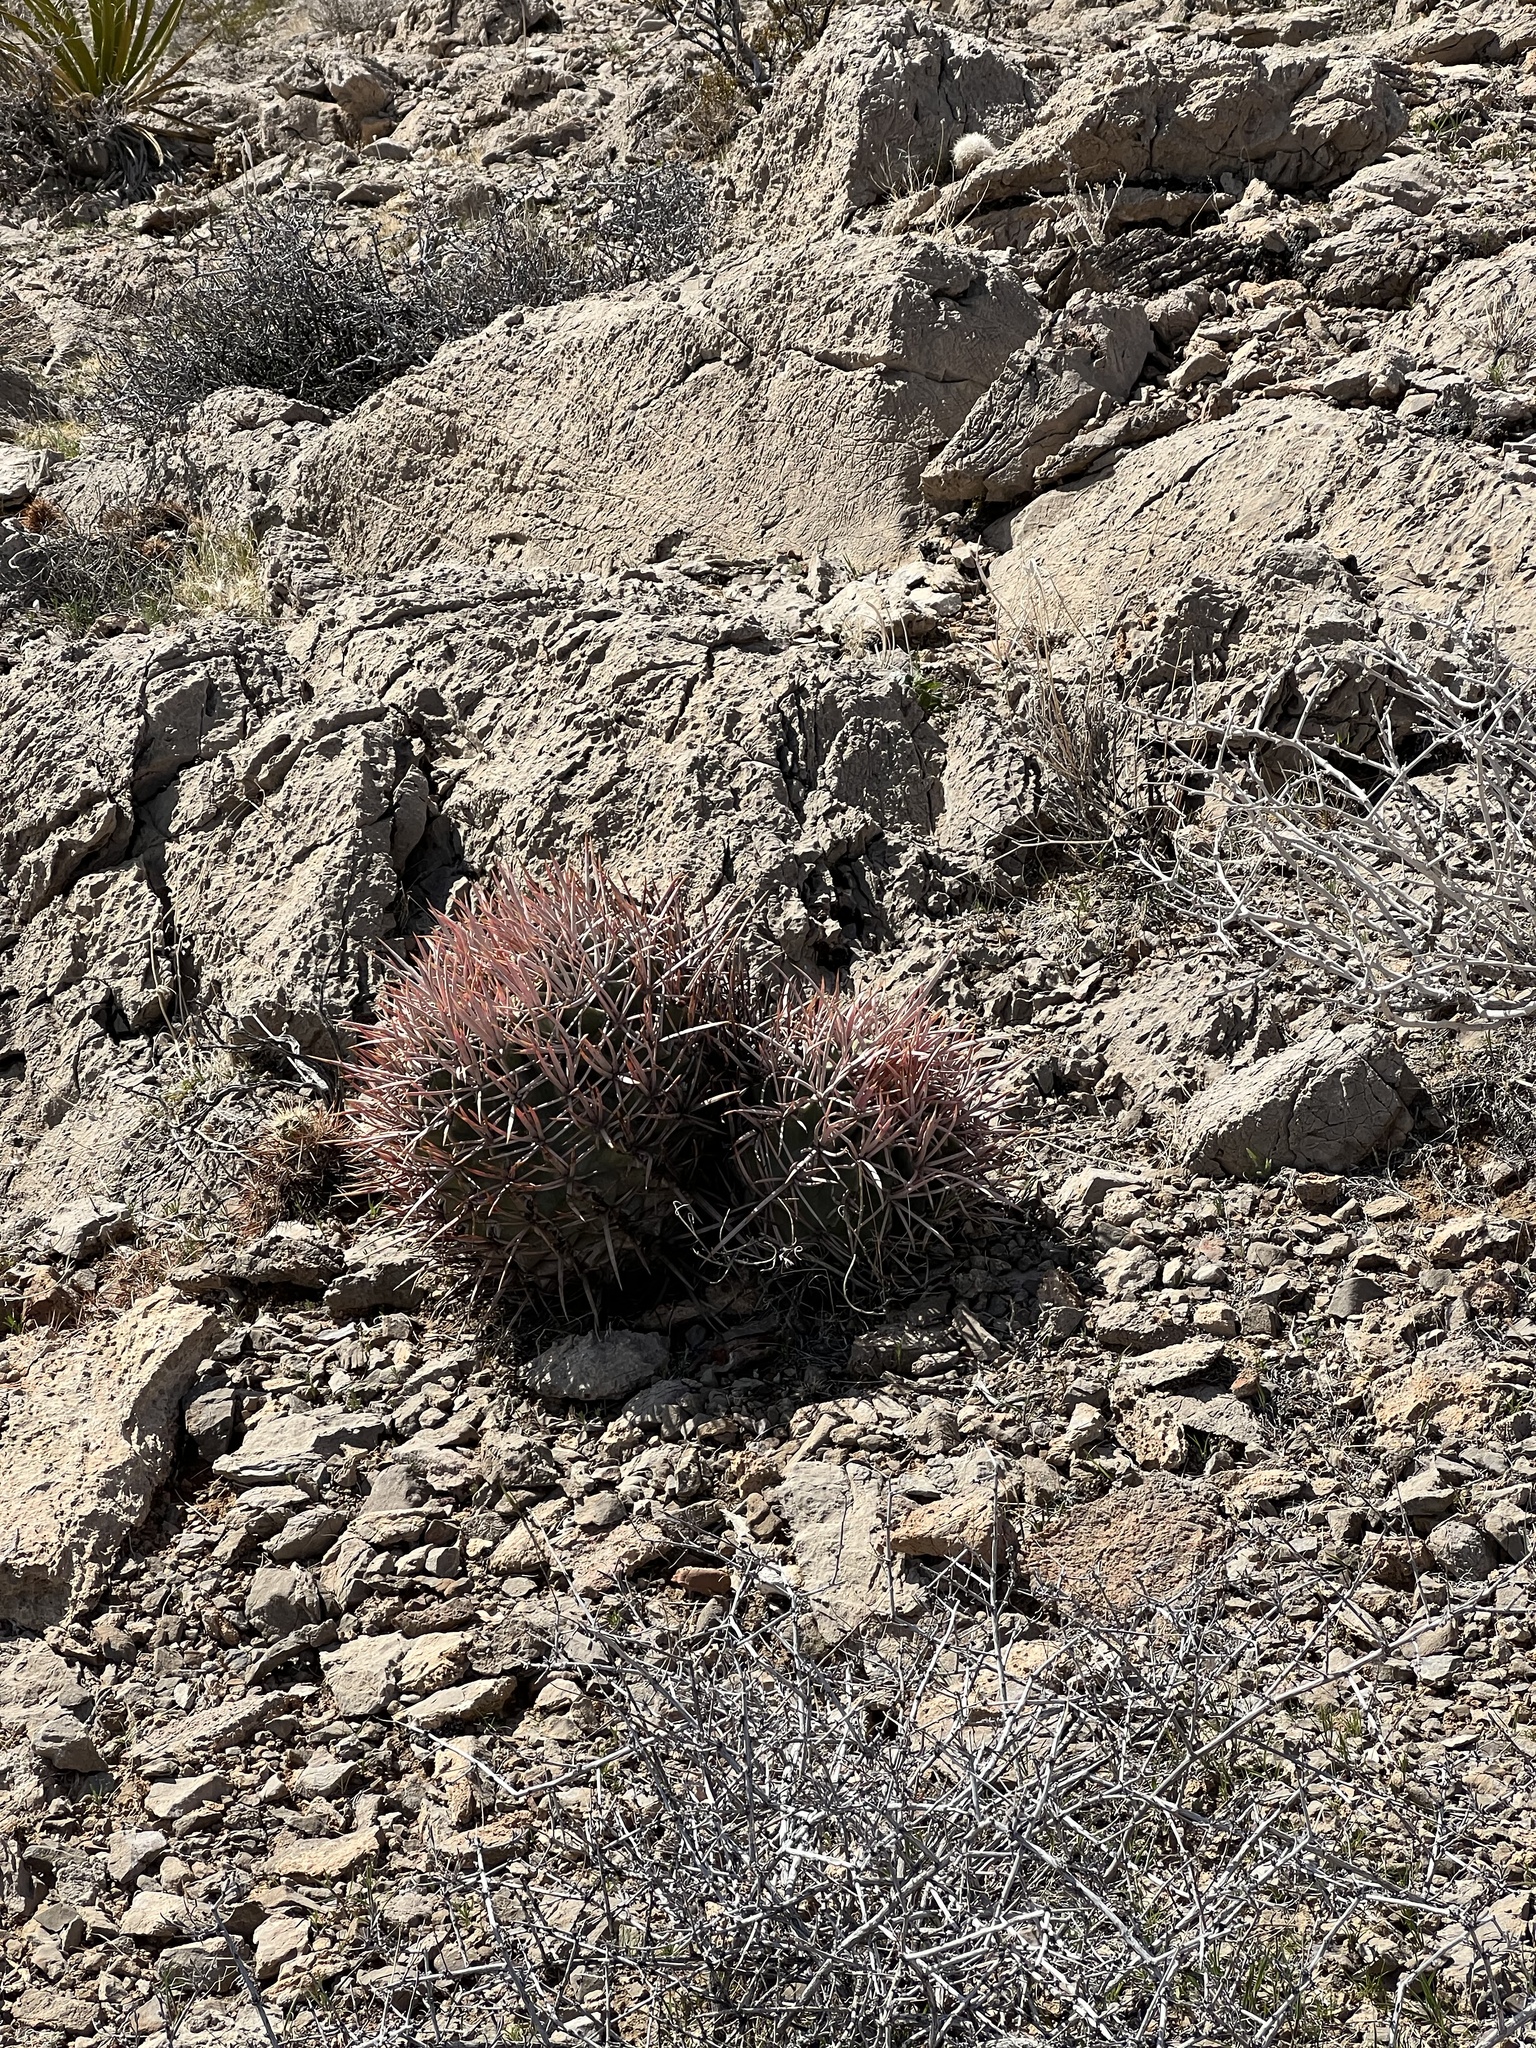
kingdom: Plantae
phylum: Tracheophyta
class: Magnoliopsida
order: Caryophyllales
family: Cactaceae
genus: Echinocactus
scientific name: Echinocactus polycephalus
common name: Cottontop cactus
